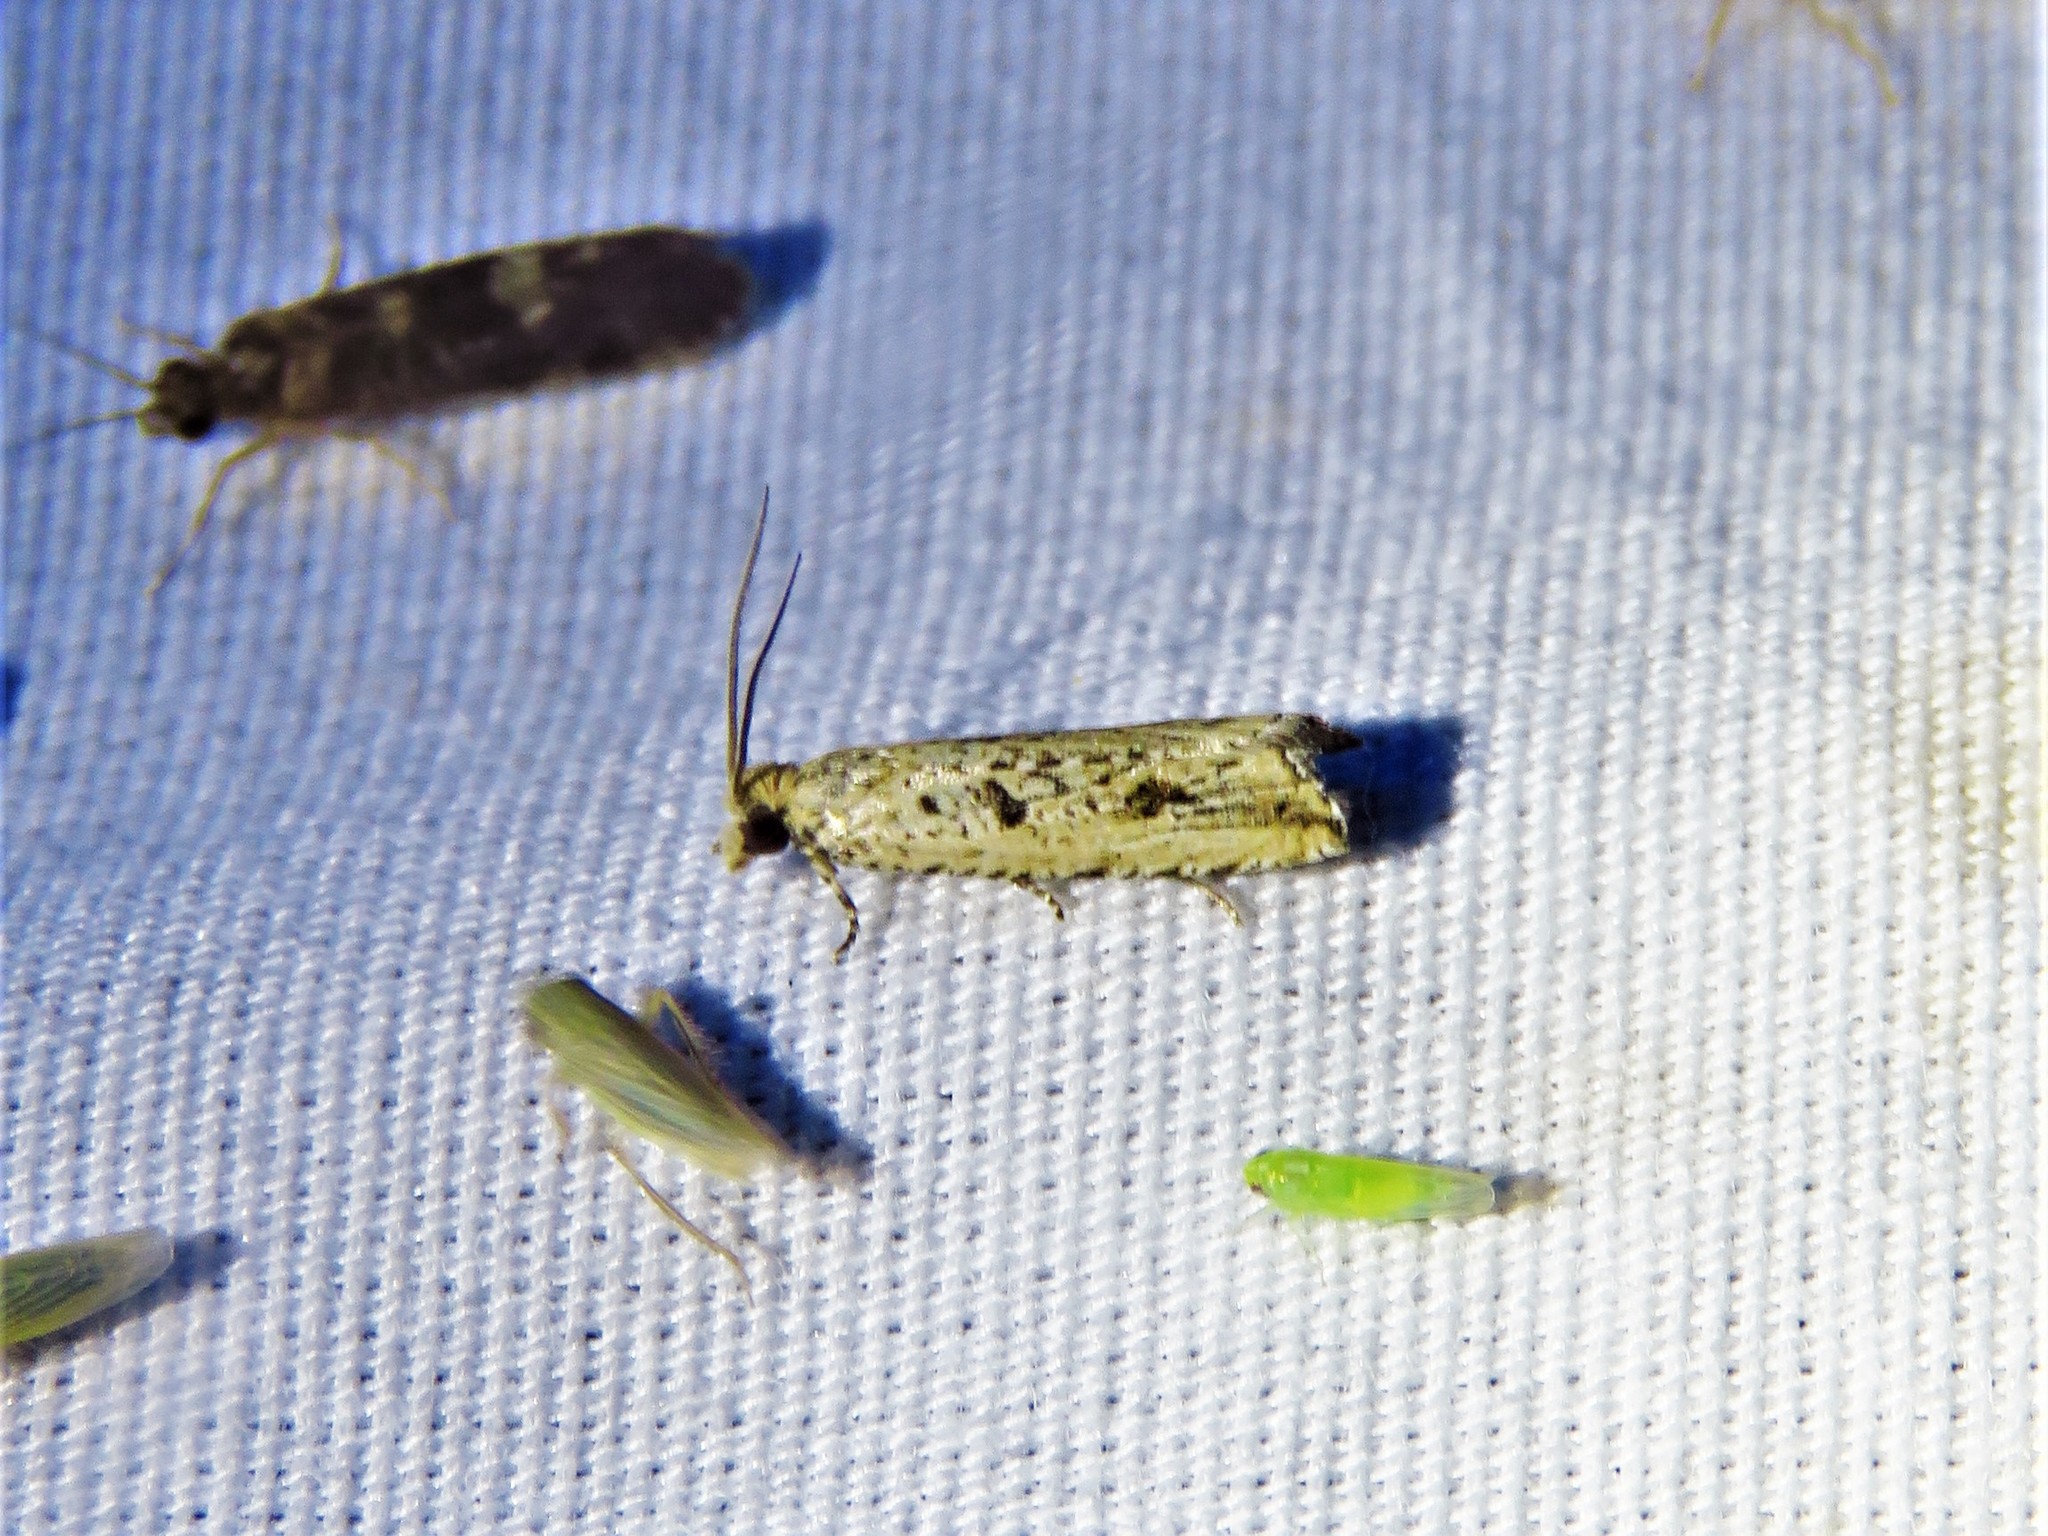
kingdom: Animalia
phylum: Arthropoda
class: Insecta
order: Lepidoptera
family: Tortricidae
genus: Bactra
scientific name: Bactra verutana
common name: Javelin moth
